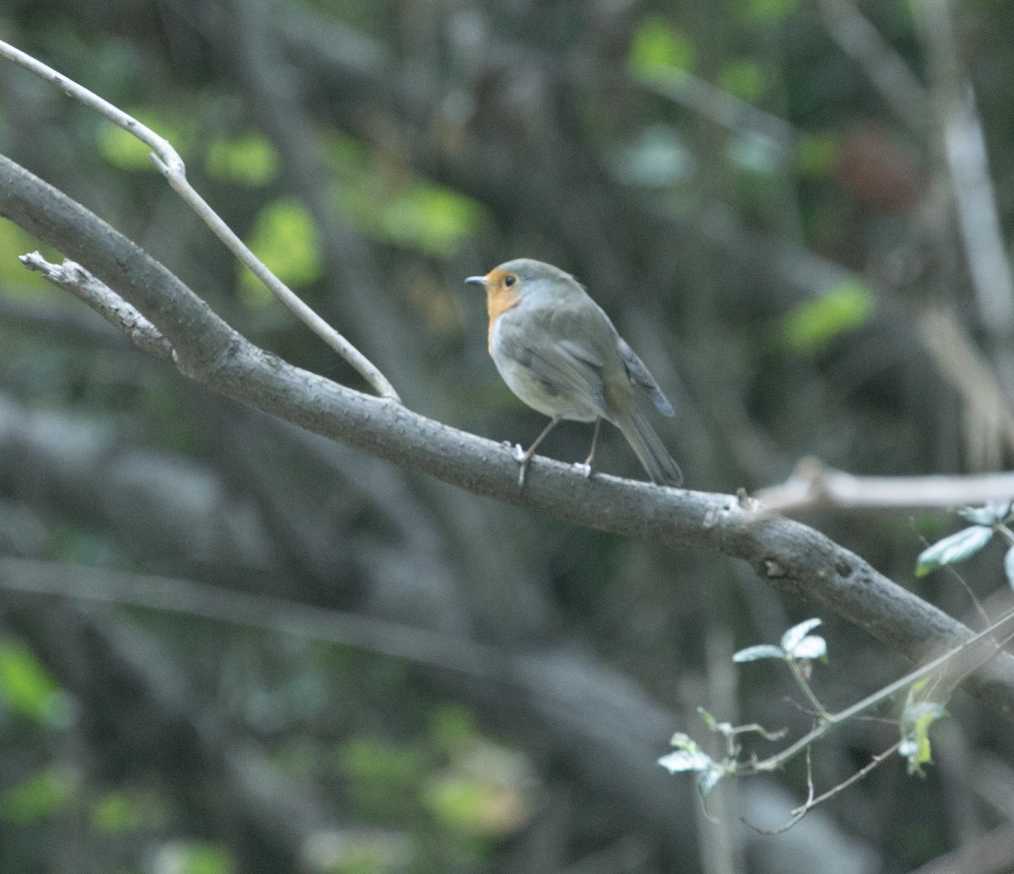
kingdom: Animalia
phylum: Chordata
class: Aves
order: Passeriformes
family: Muscicapidae
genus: Erithacus
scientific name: Erithacus rubecula
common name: European robin
